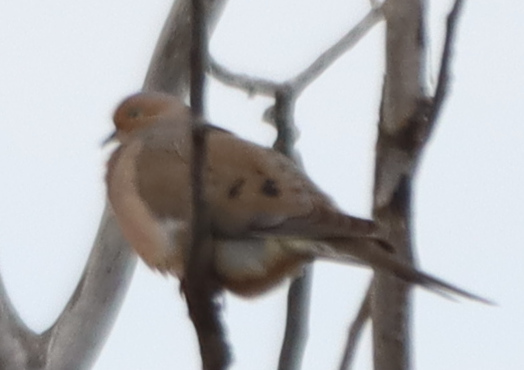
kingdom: Animalia
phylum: Chordata
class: Aves
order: Columbiformes
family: Columbidae
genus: Zenaida
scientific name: Zenaida macroura
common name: Mourning dove
